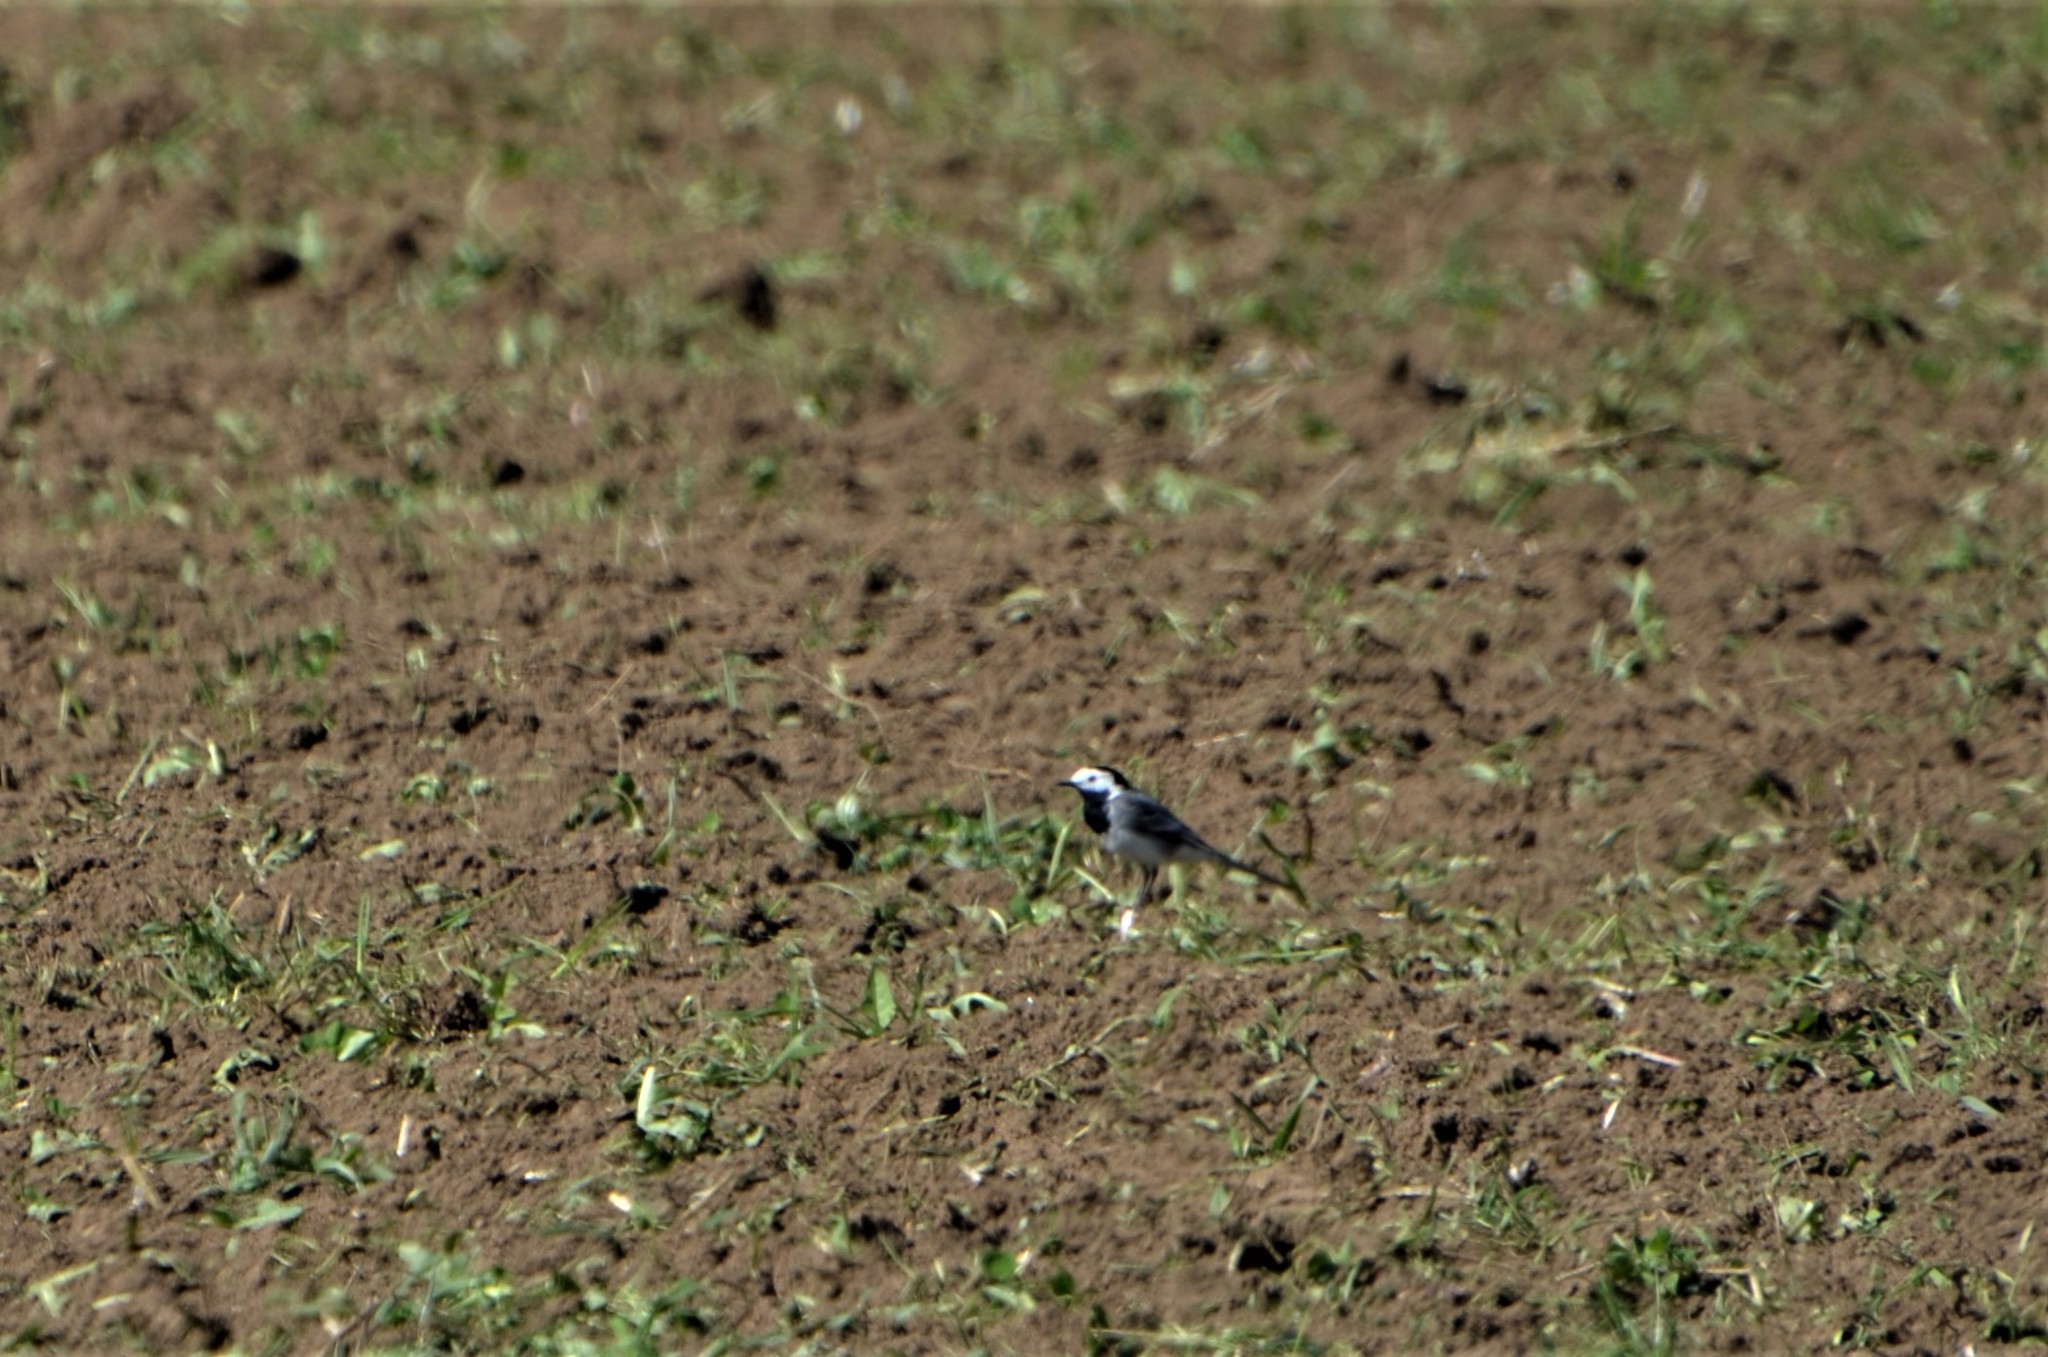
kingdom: Animalia
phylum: Chordata
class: Aves
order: Passeriformes
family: Motacillidae
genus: Motacilla
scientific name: Motacilla alba
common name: White wagtail
